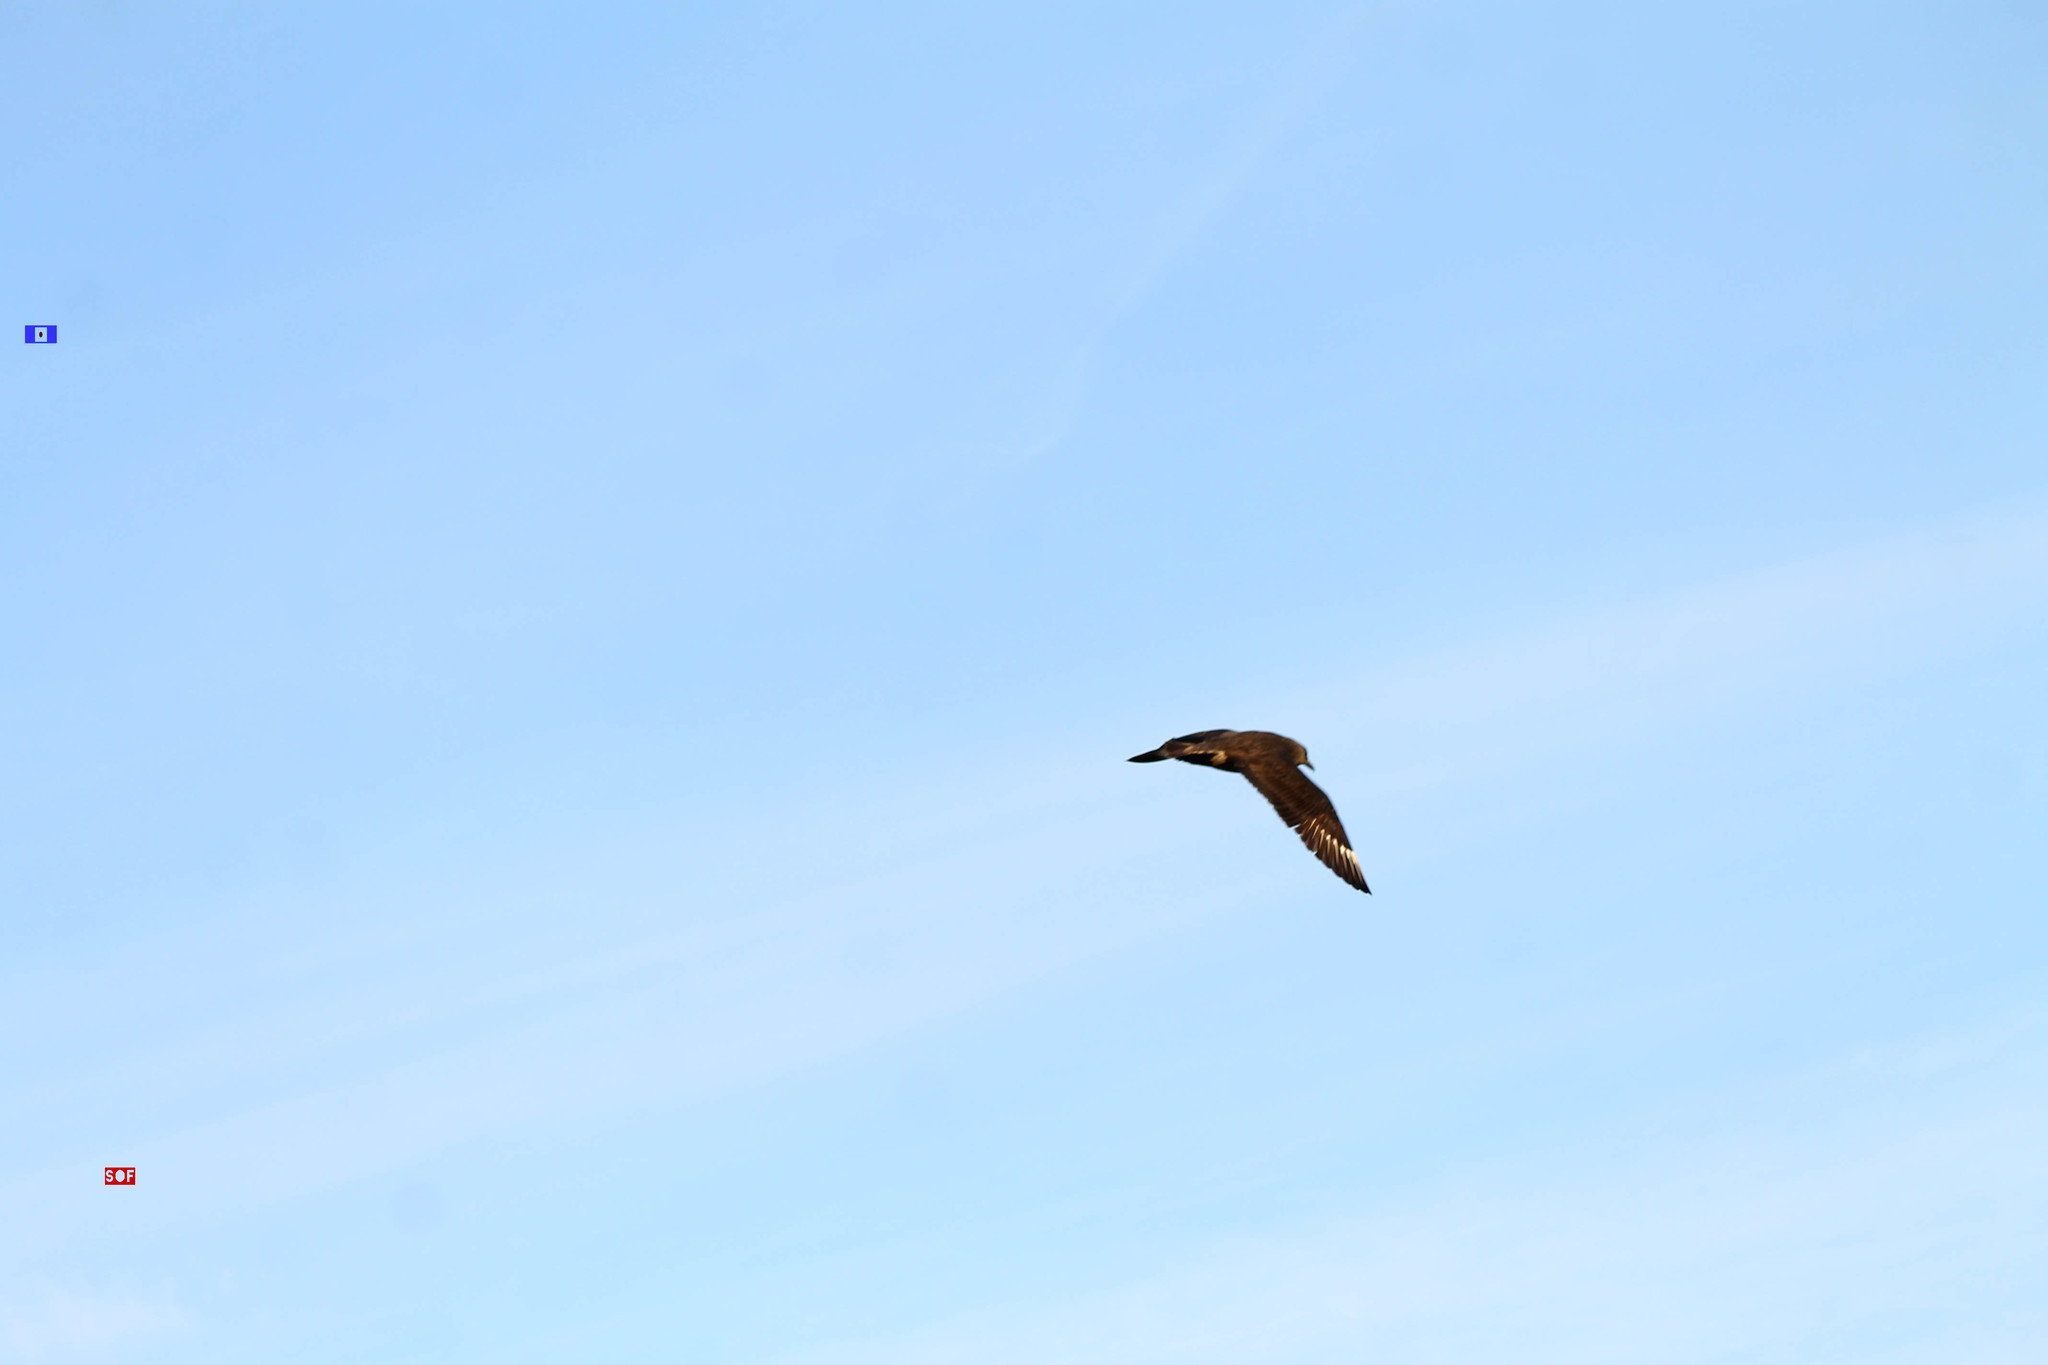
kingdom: Animalia
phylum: Chordata
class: Aves
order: Charadriiformes
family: Stercorariidae
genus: Stercorarius
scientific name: Stercorarius antarcticus
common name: Brown skua
